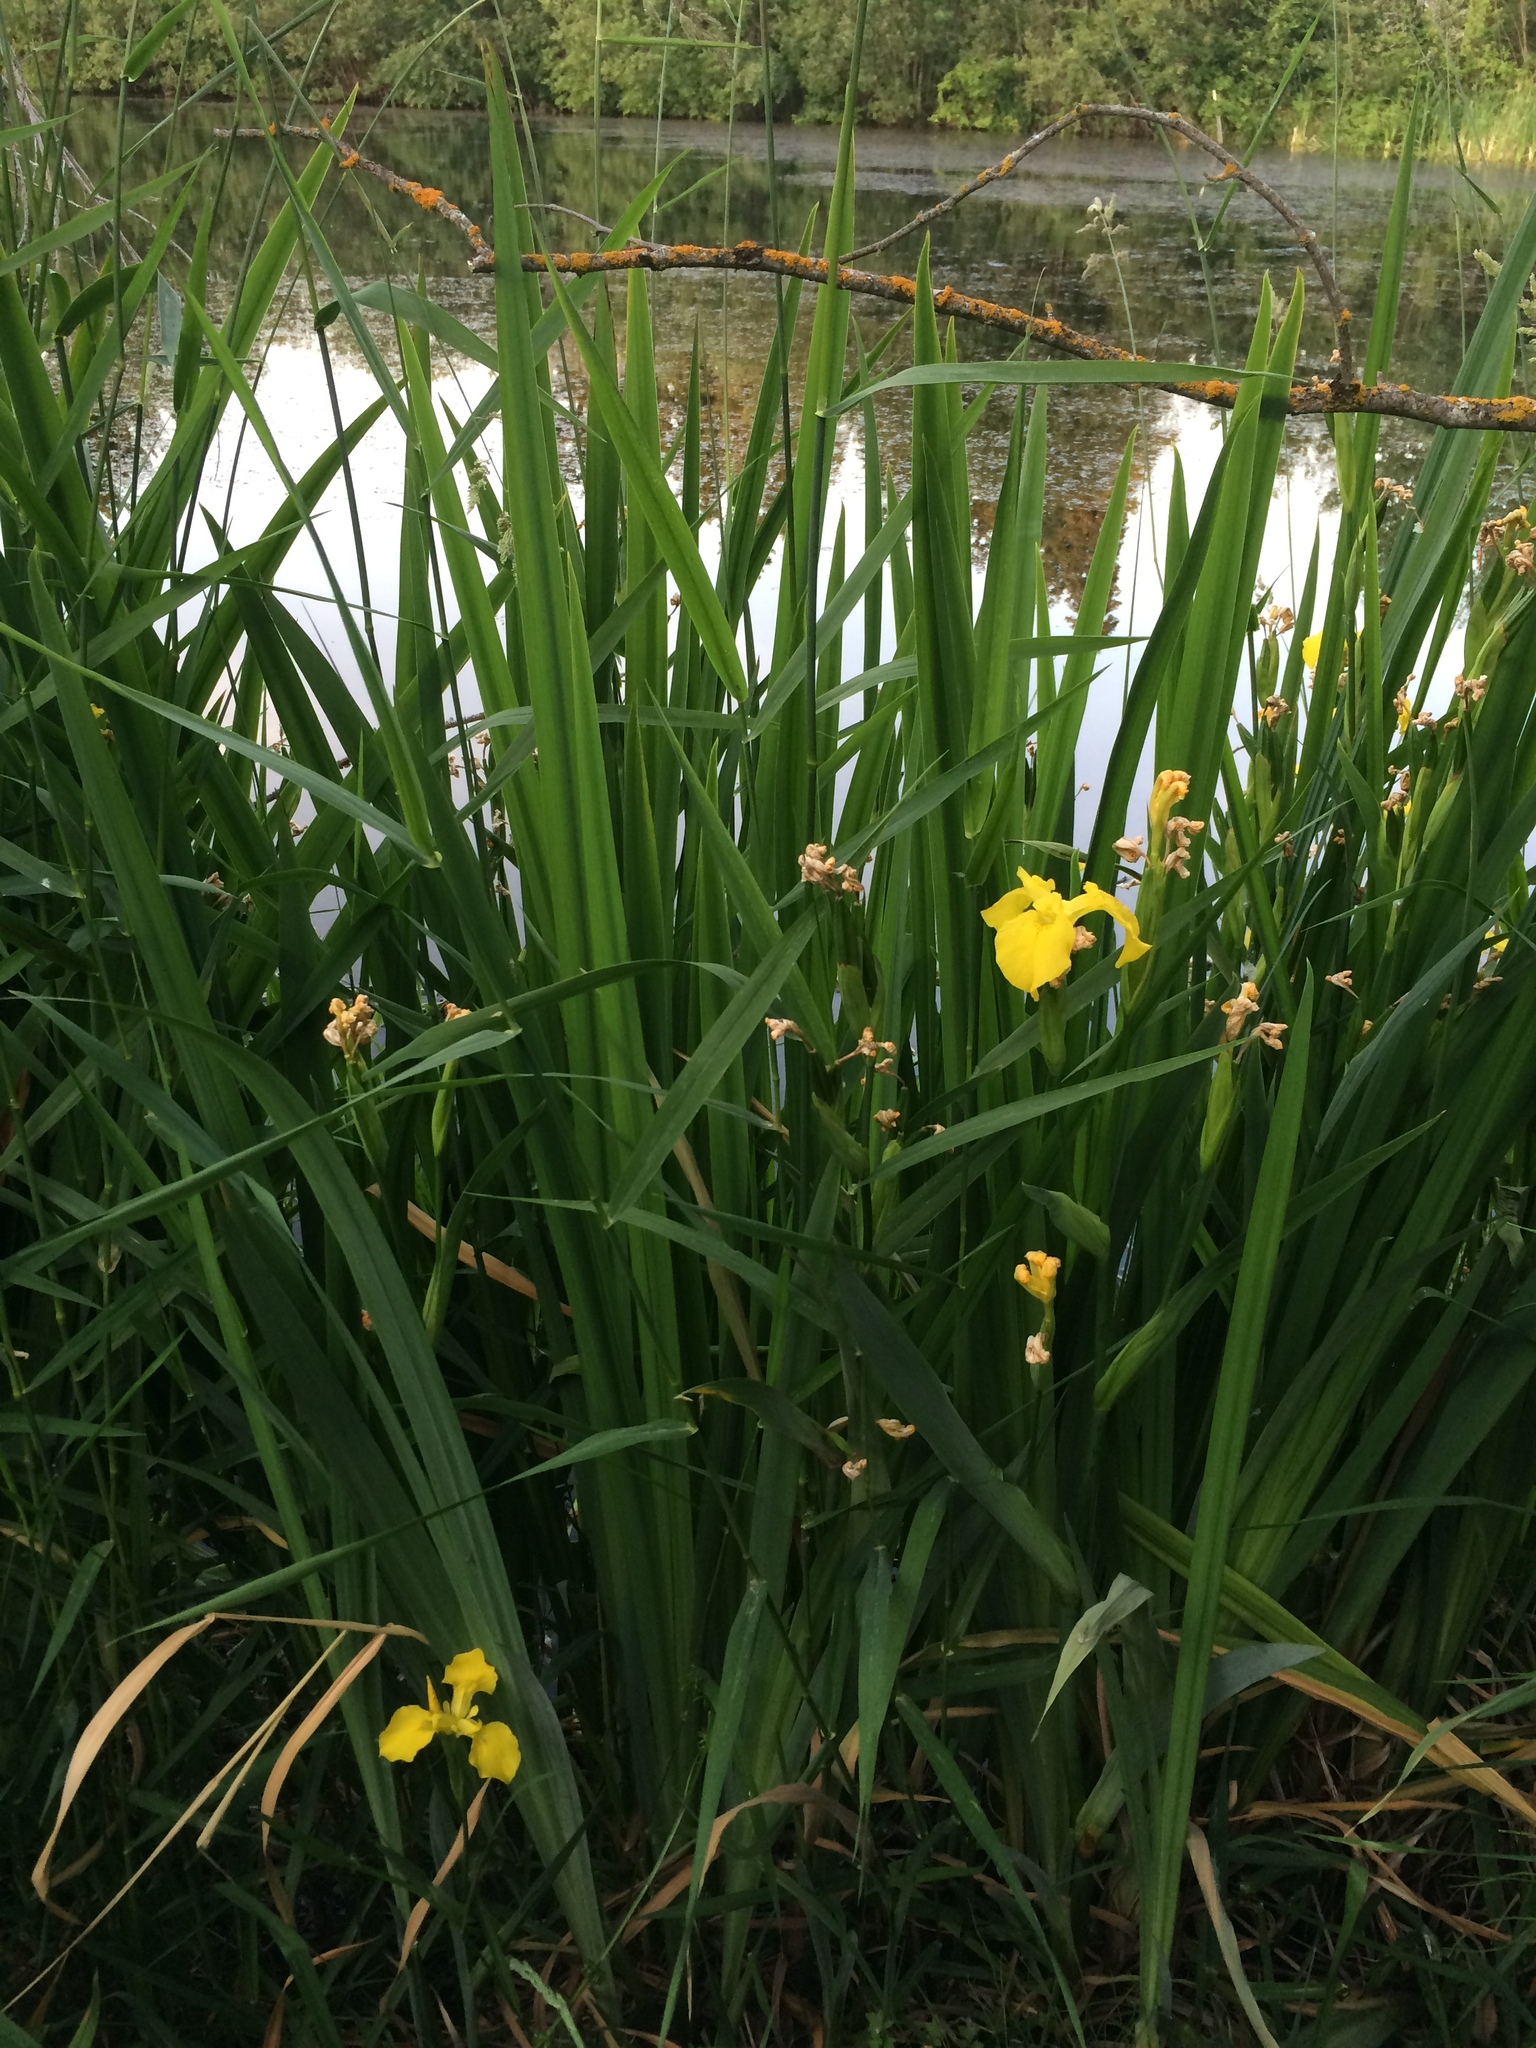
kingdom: Plantae
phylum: Tracheophyta
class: Liliopsida
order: Asparagales
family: Iridaceae
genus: Iris
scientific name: Iris pseudacorus
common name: Yellow flag
